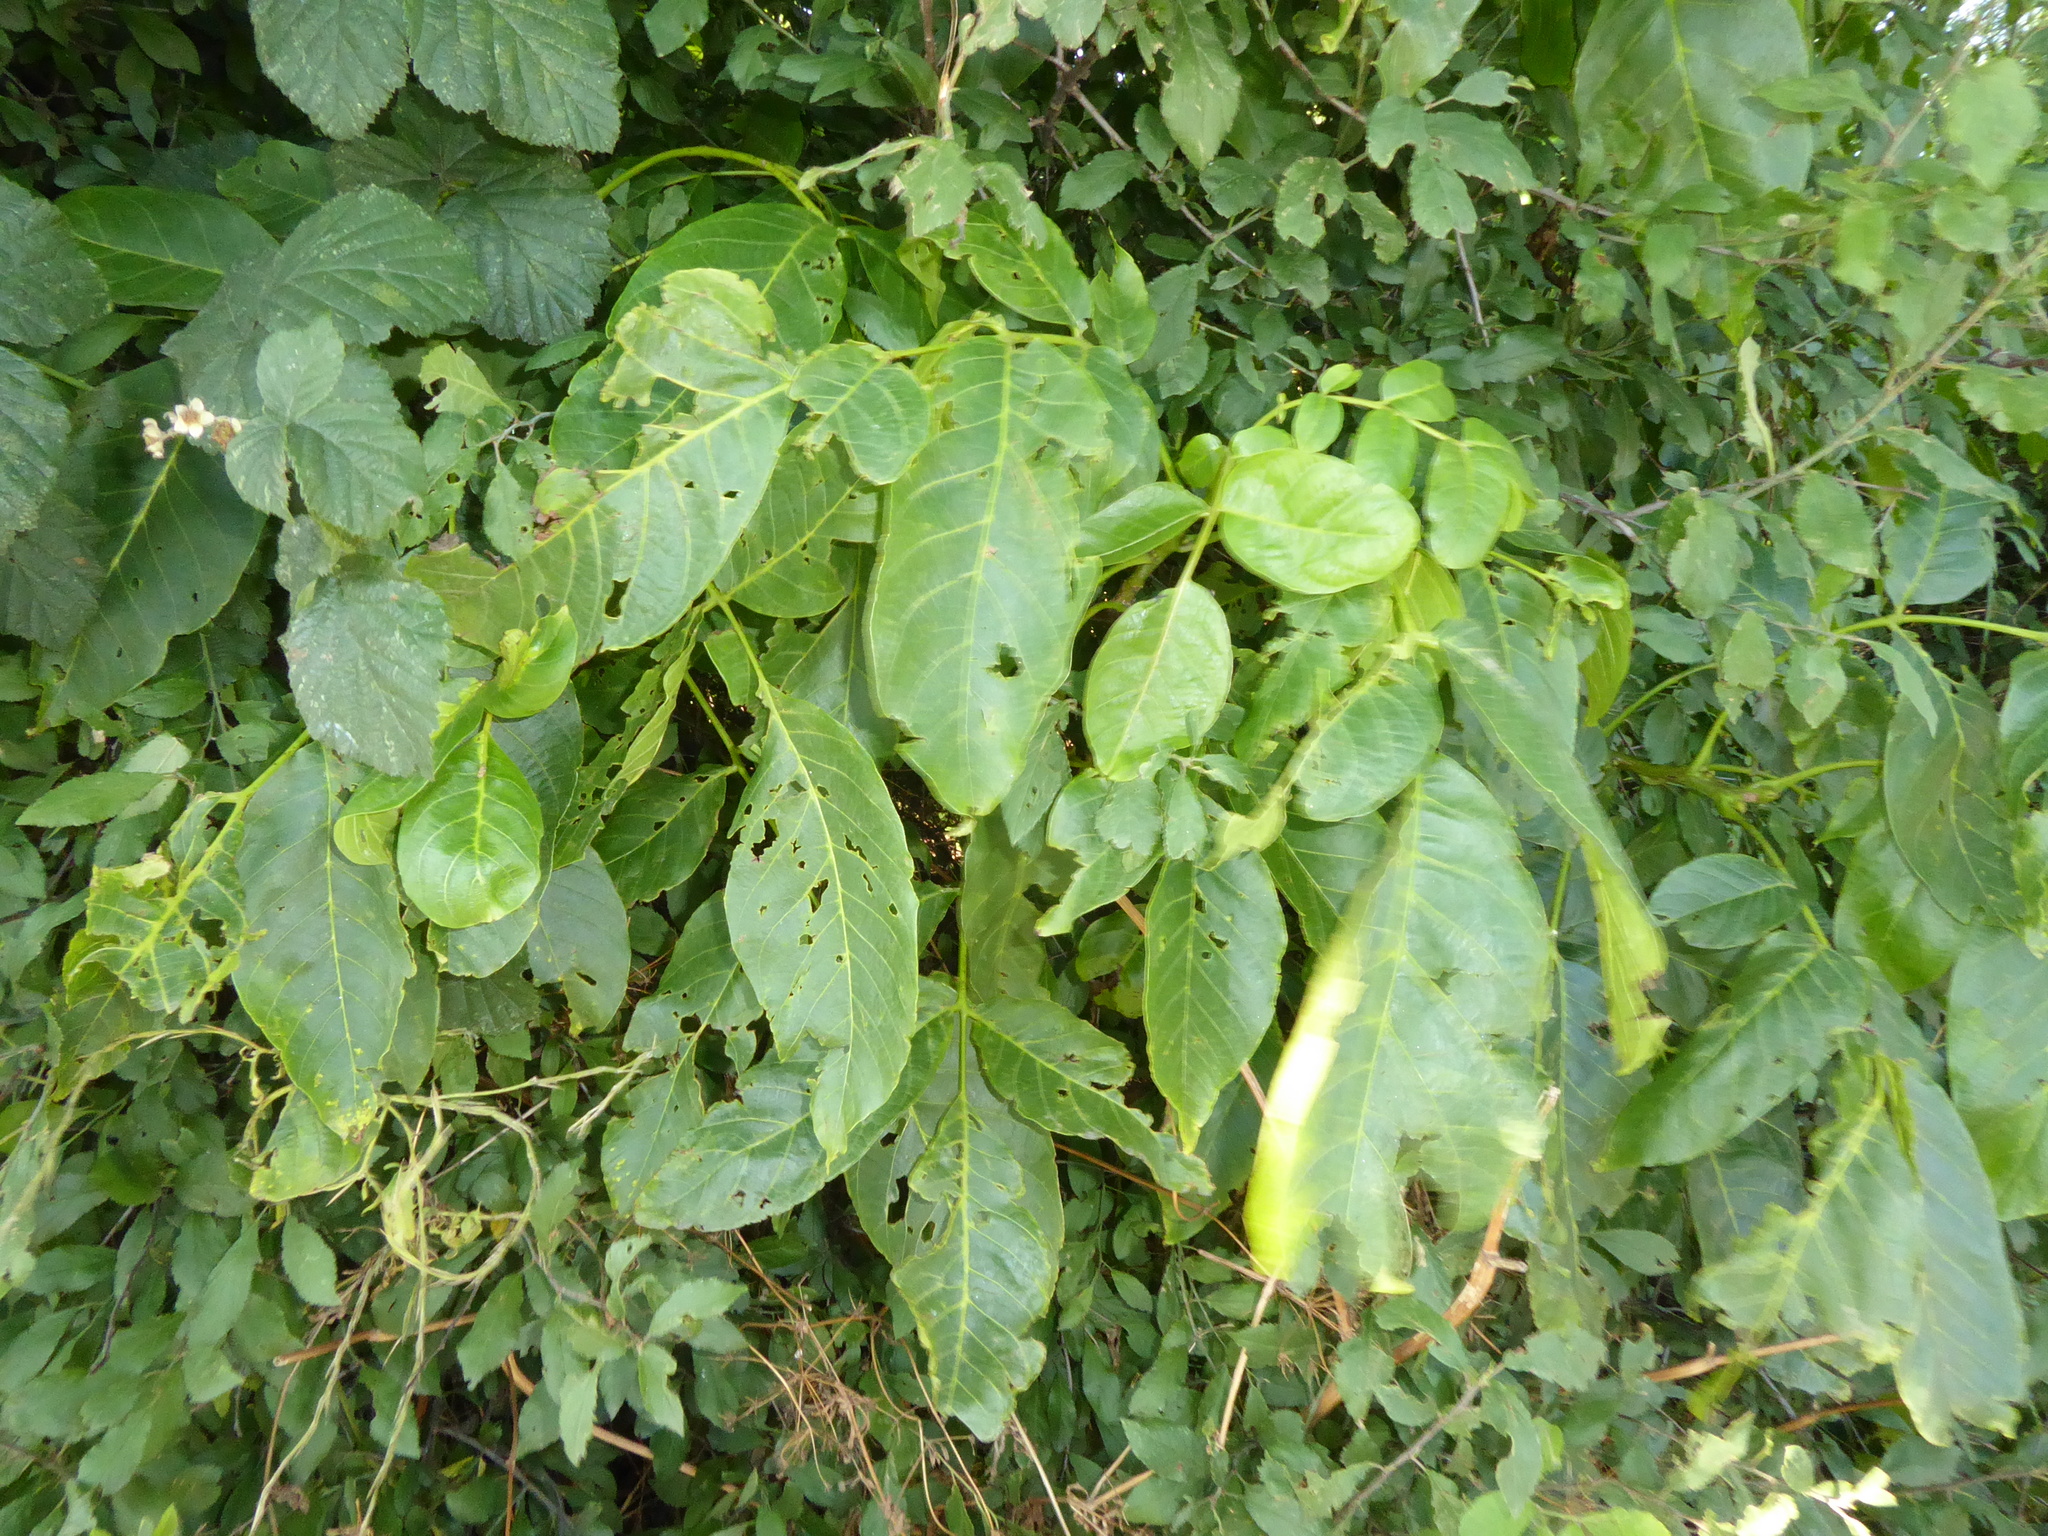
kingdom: Plantae
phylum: Tracheophyta
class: Magnoliopsida
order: Fagales
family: Juglandaceae
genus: Juglans
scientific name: Juglans regia
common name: Walnut
